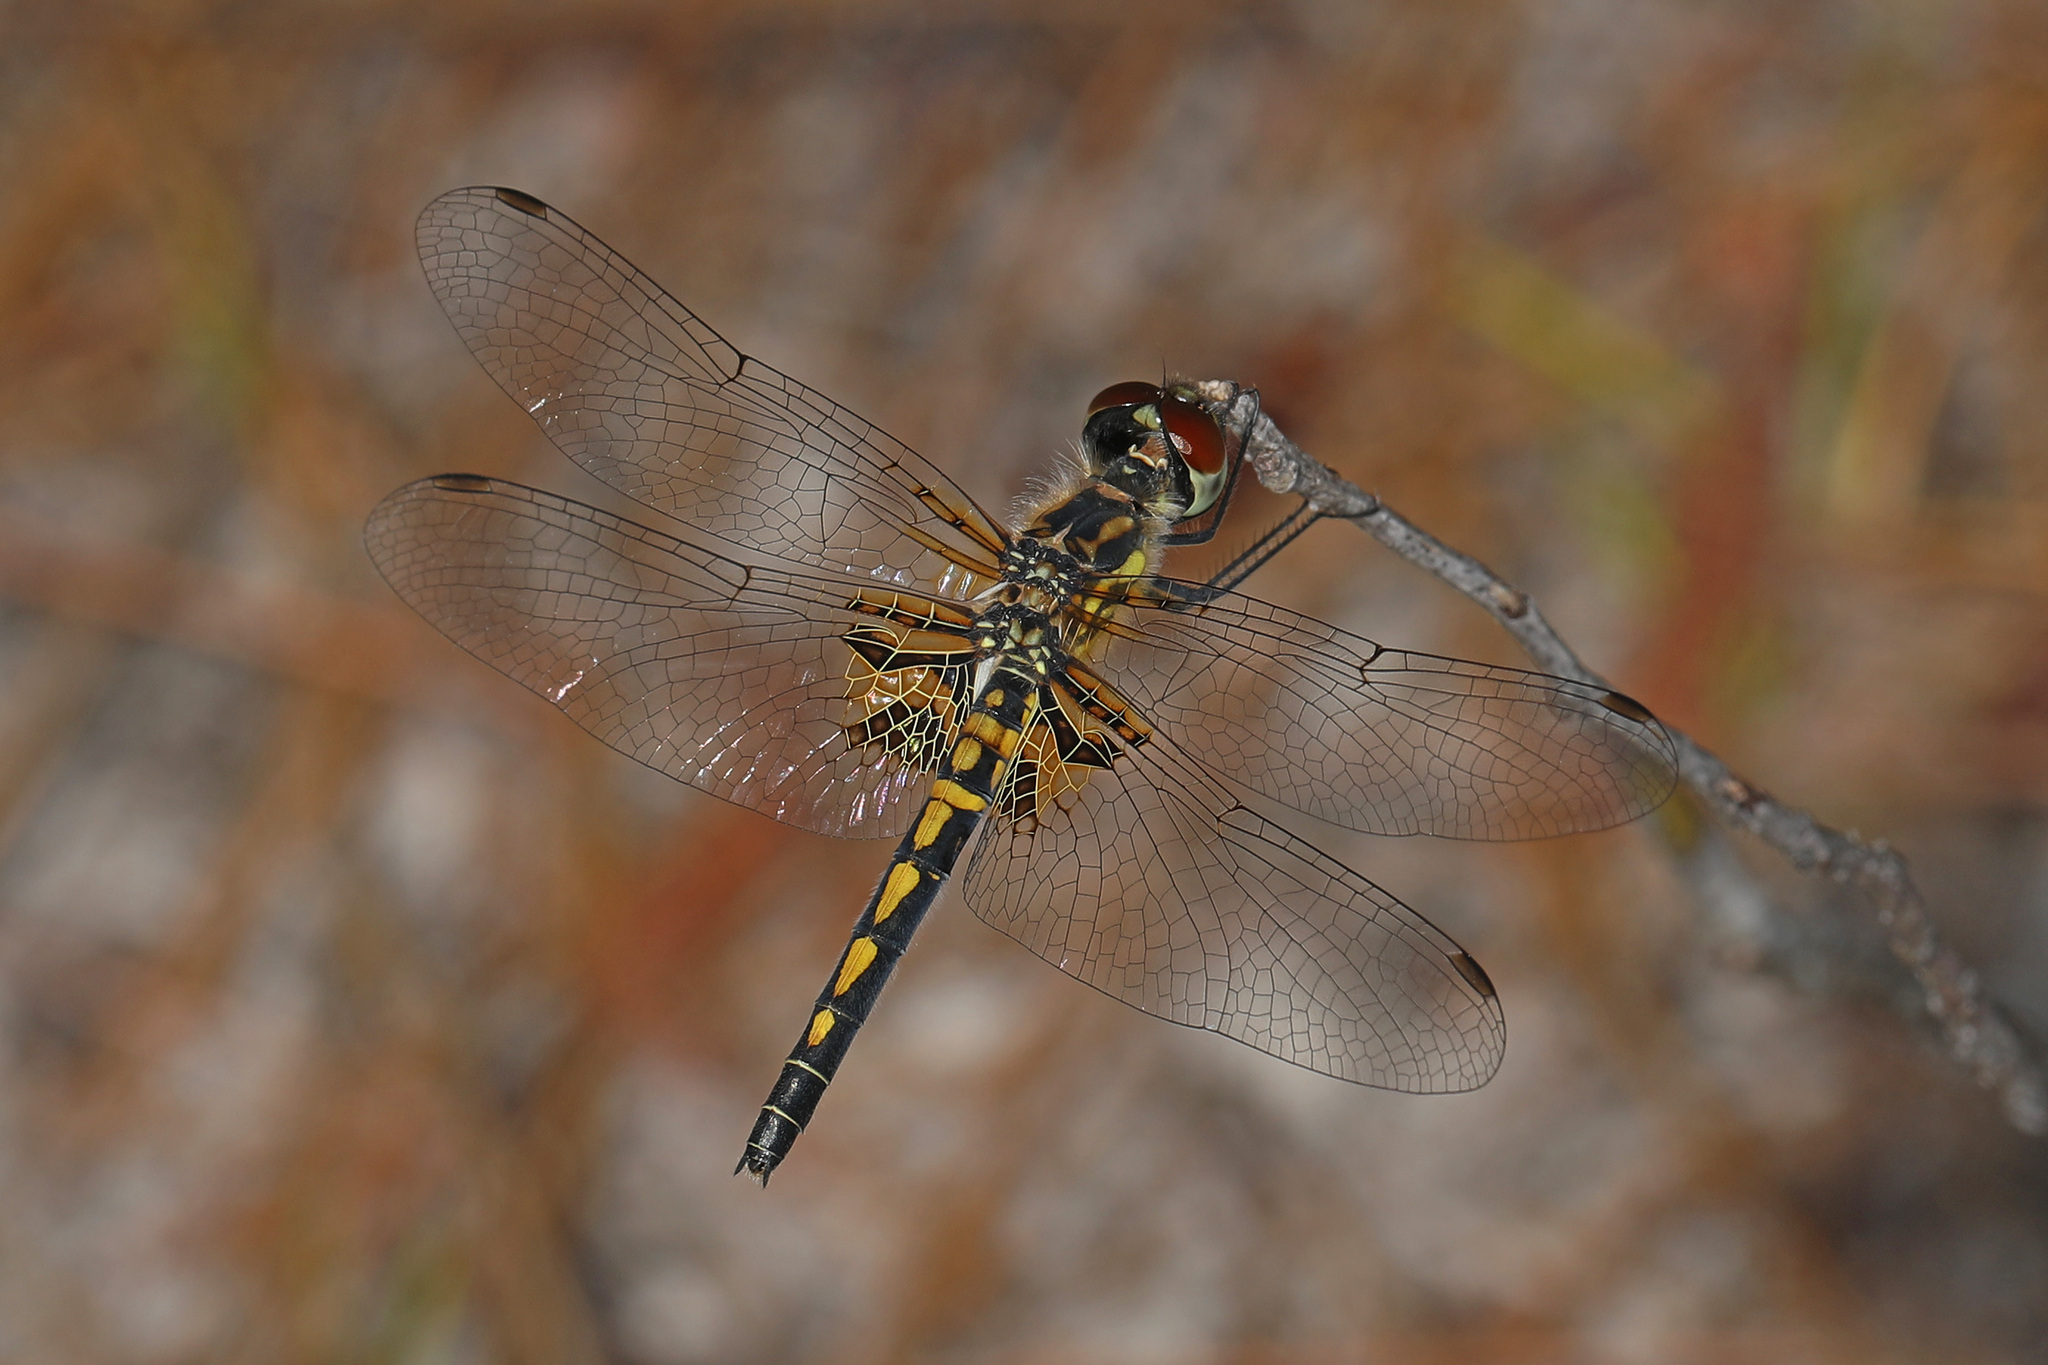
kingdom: Animalia
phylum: Arthropoda
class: Insecta
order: Odonata
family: Libellulidae
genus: Celithemis
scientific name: Celithemis ornata
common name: Ornate pennant
